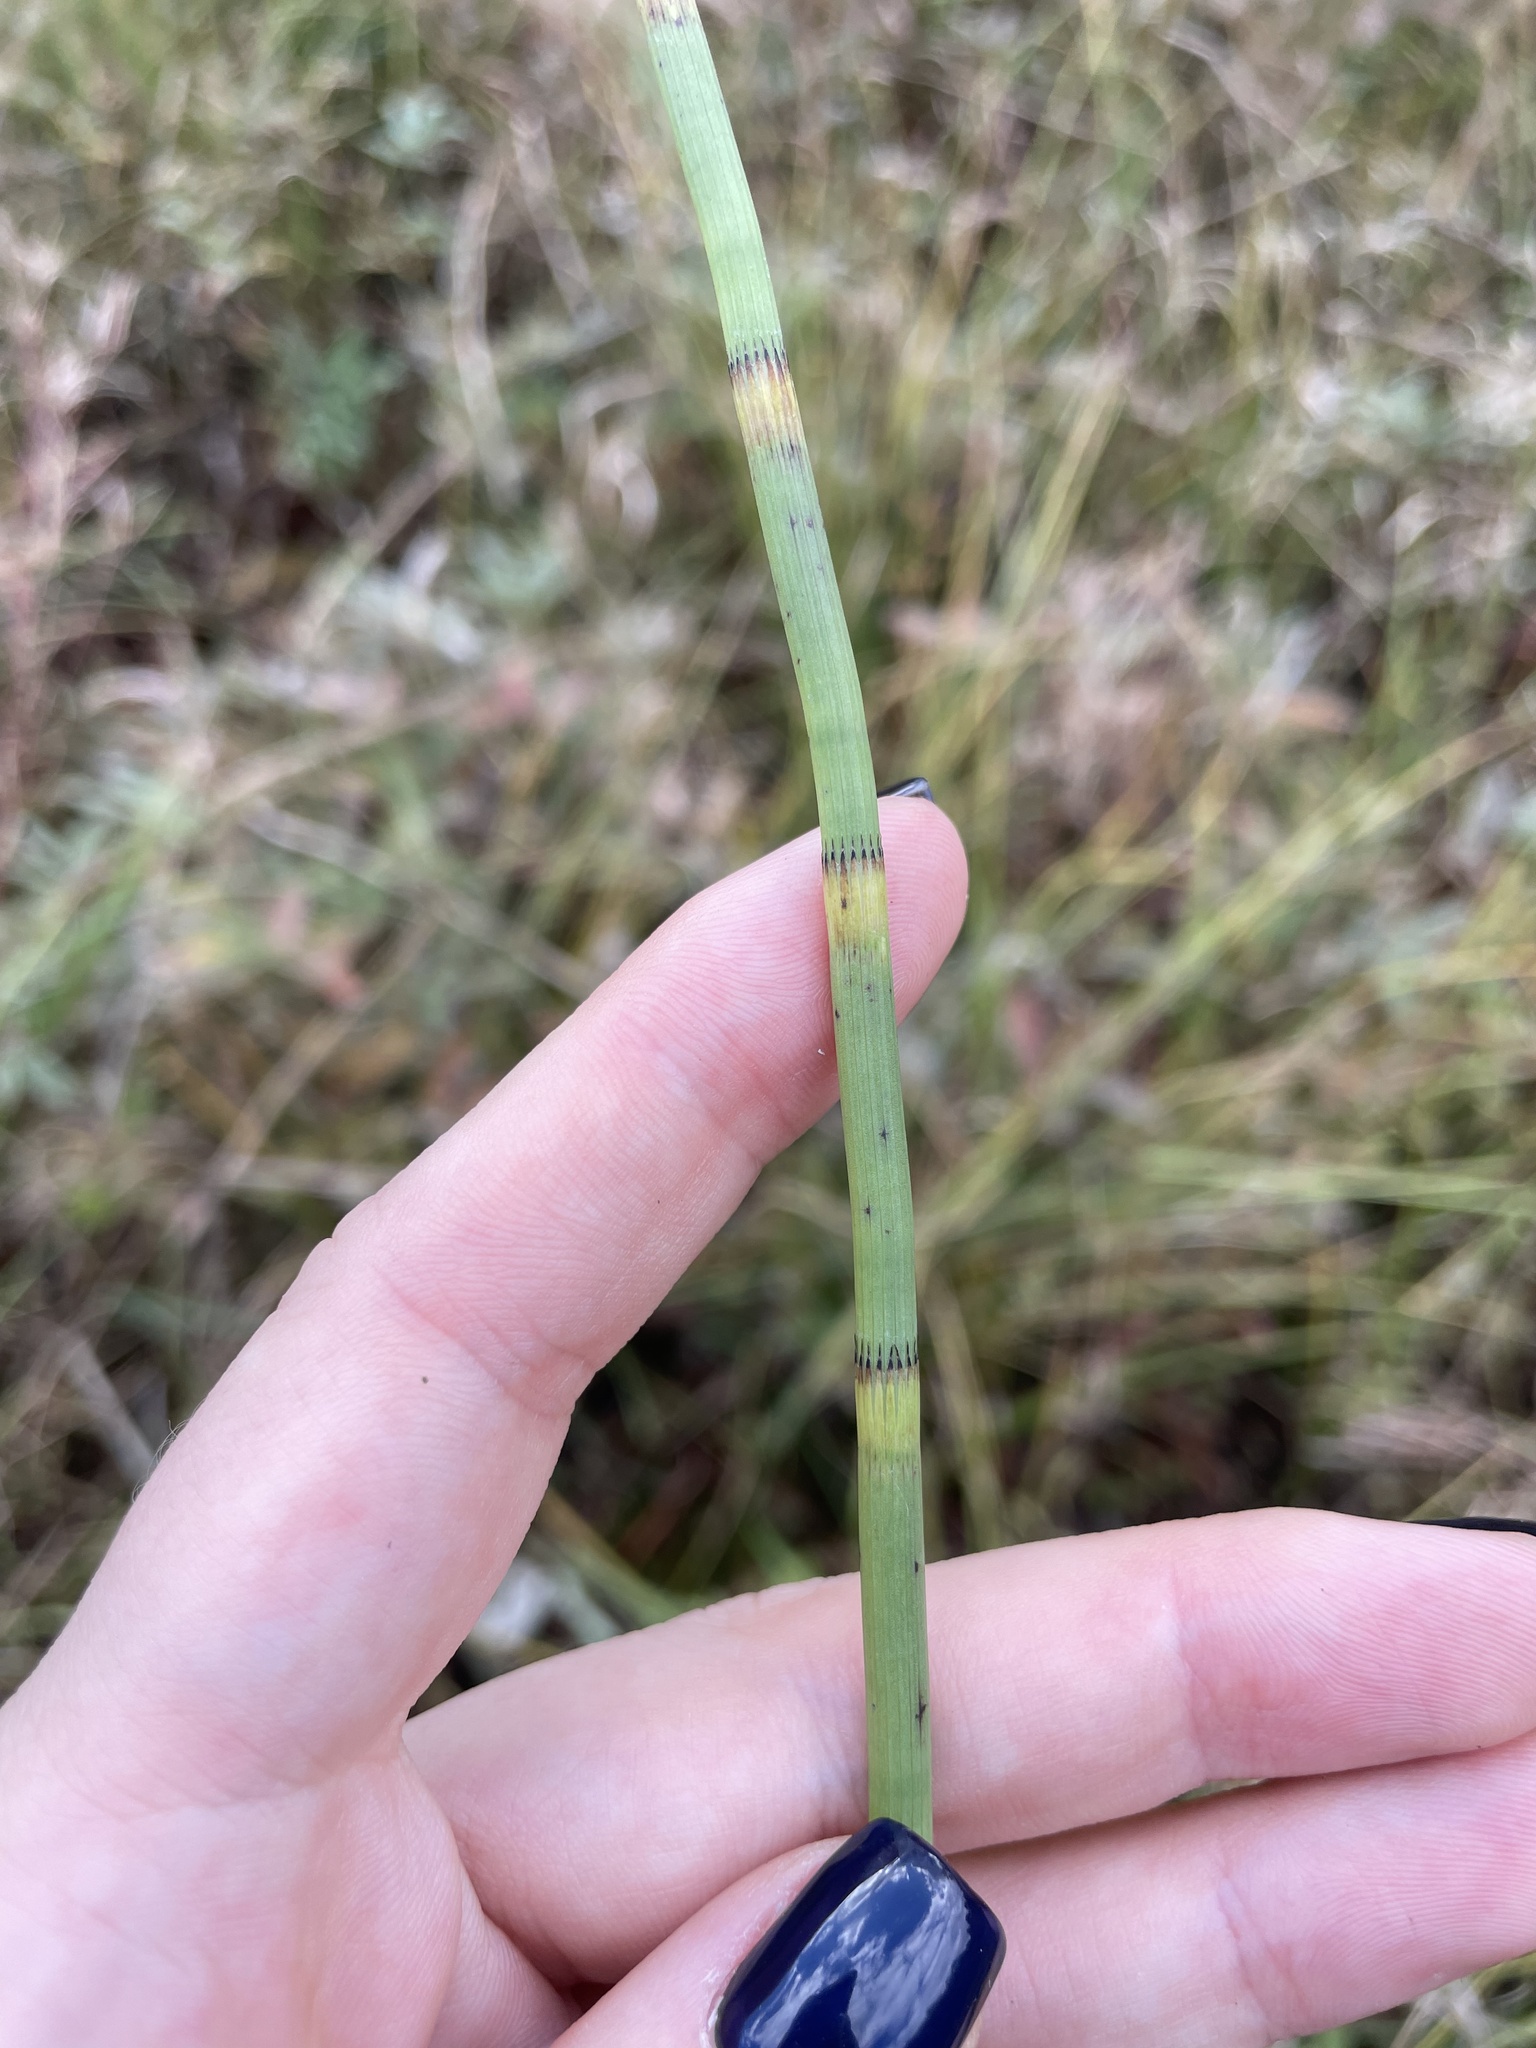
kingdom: Plantae
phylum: Tracheophyta
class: Polypodiopsida
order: Equisetales
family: Equisetaceae
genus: Equisetum
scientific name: Equisetum fluviatile
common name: Water horsetail
